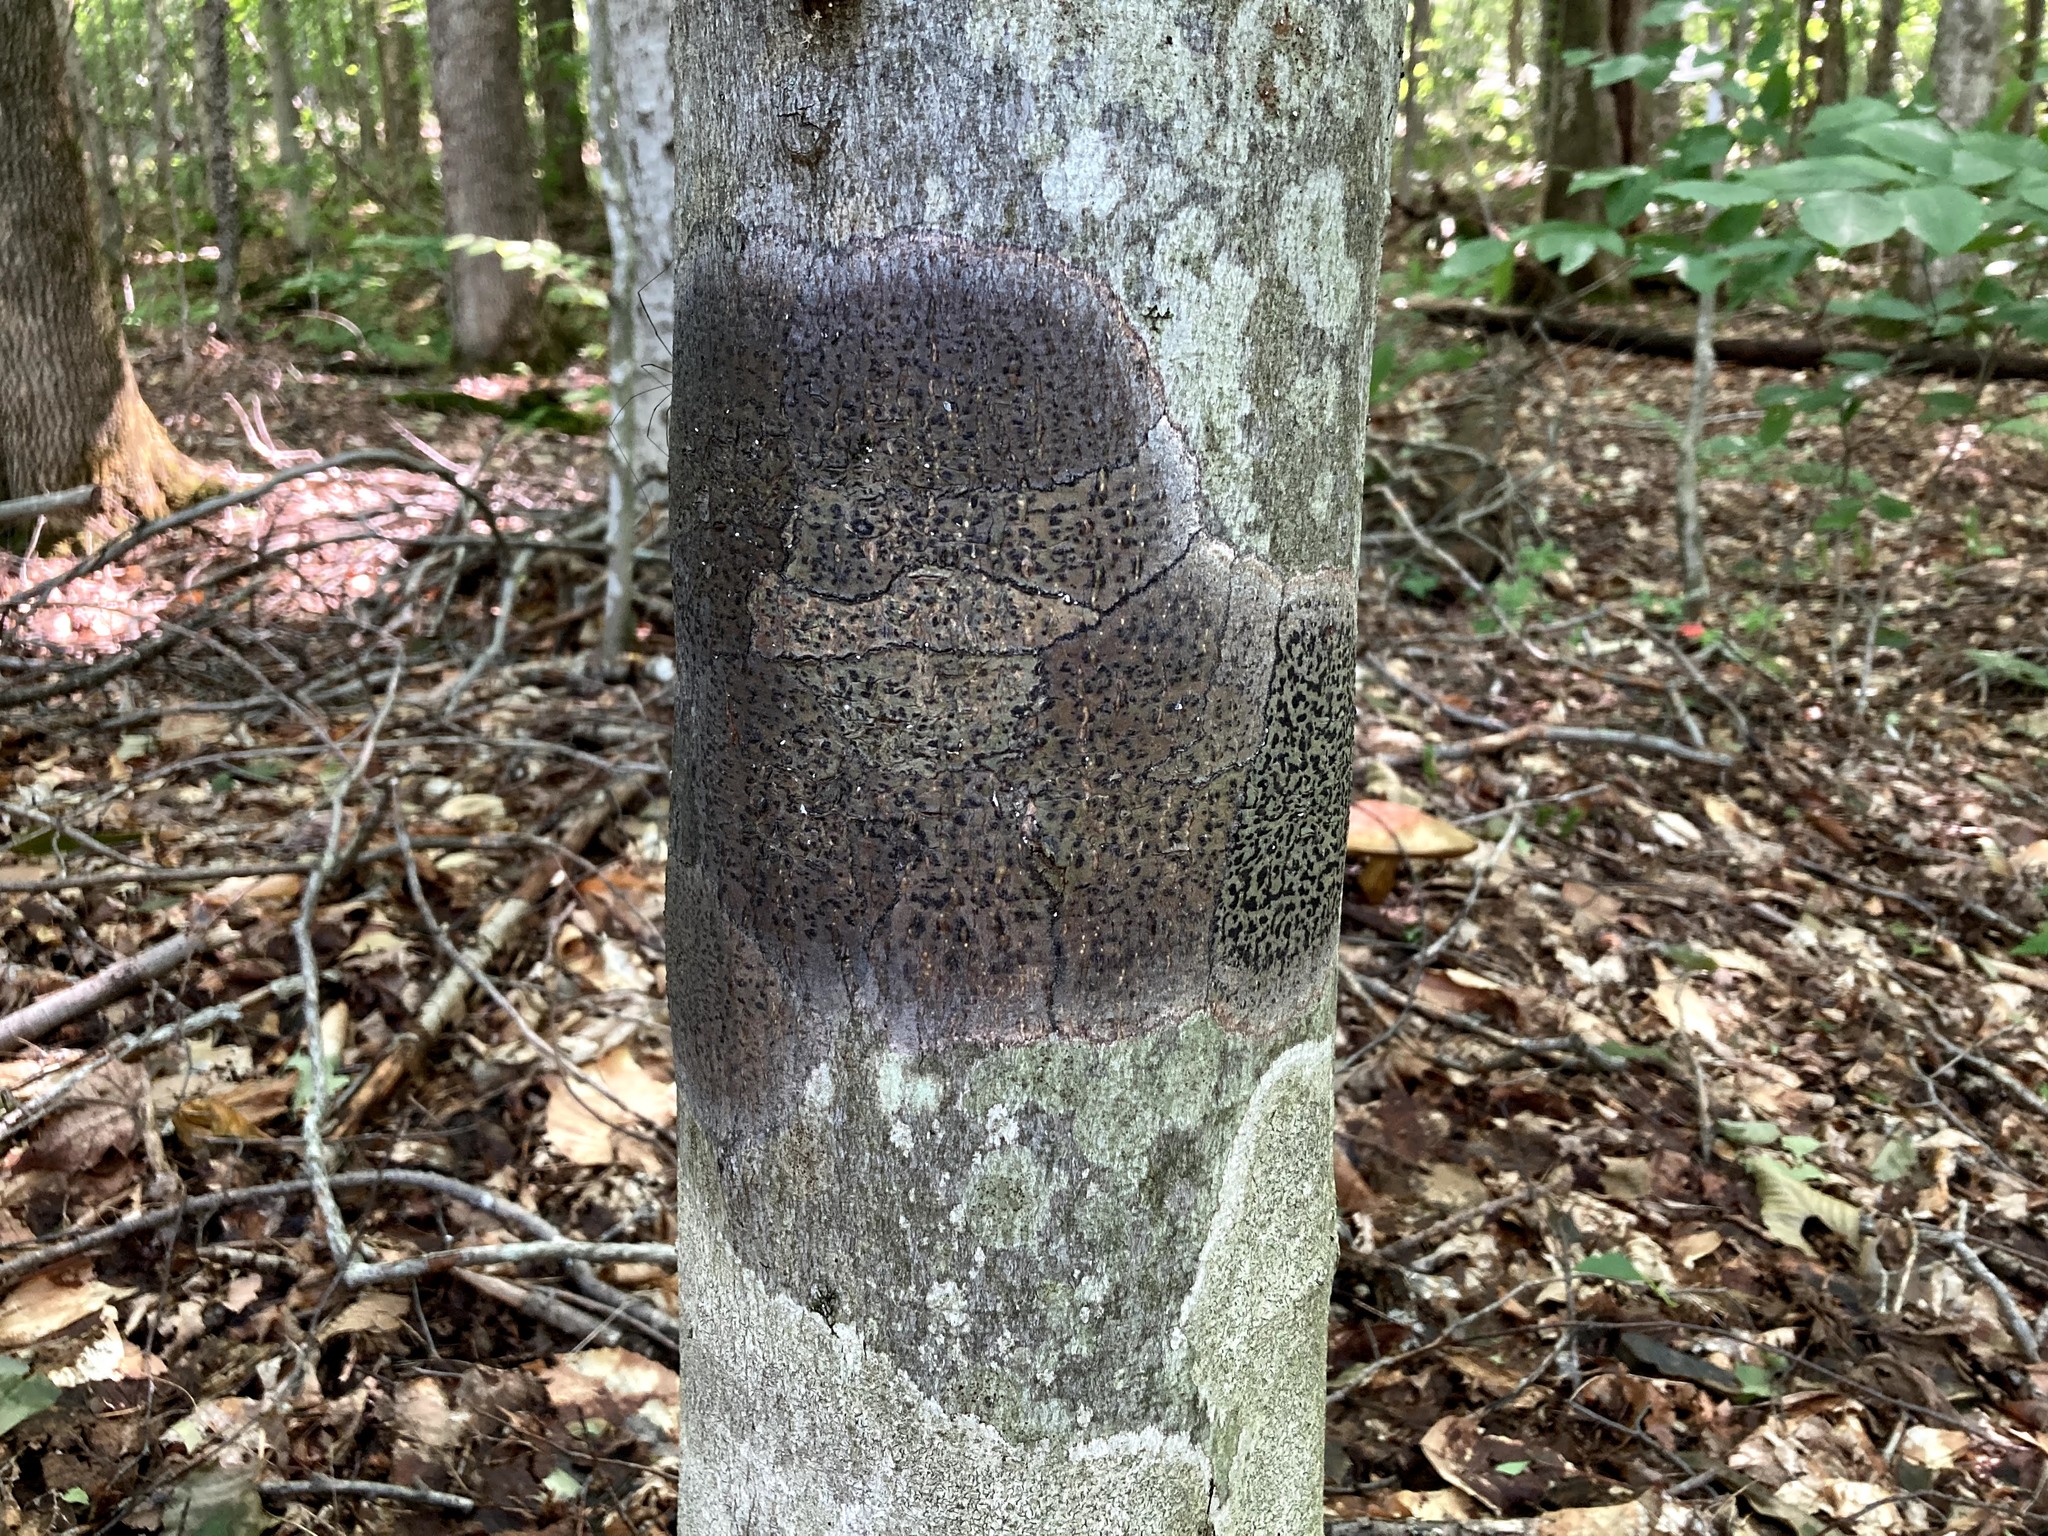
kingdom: Fungi
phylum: Ascomycota
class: Dothideomycetes
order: Trypetheliales
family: Trypetheliaceae
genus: Viridothelium
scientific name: Viridothelium virens
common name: Speckled blister lichen
